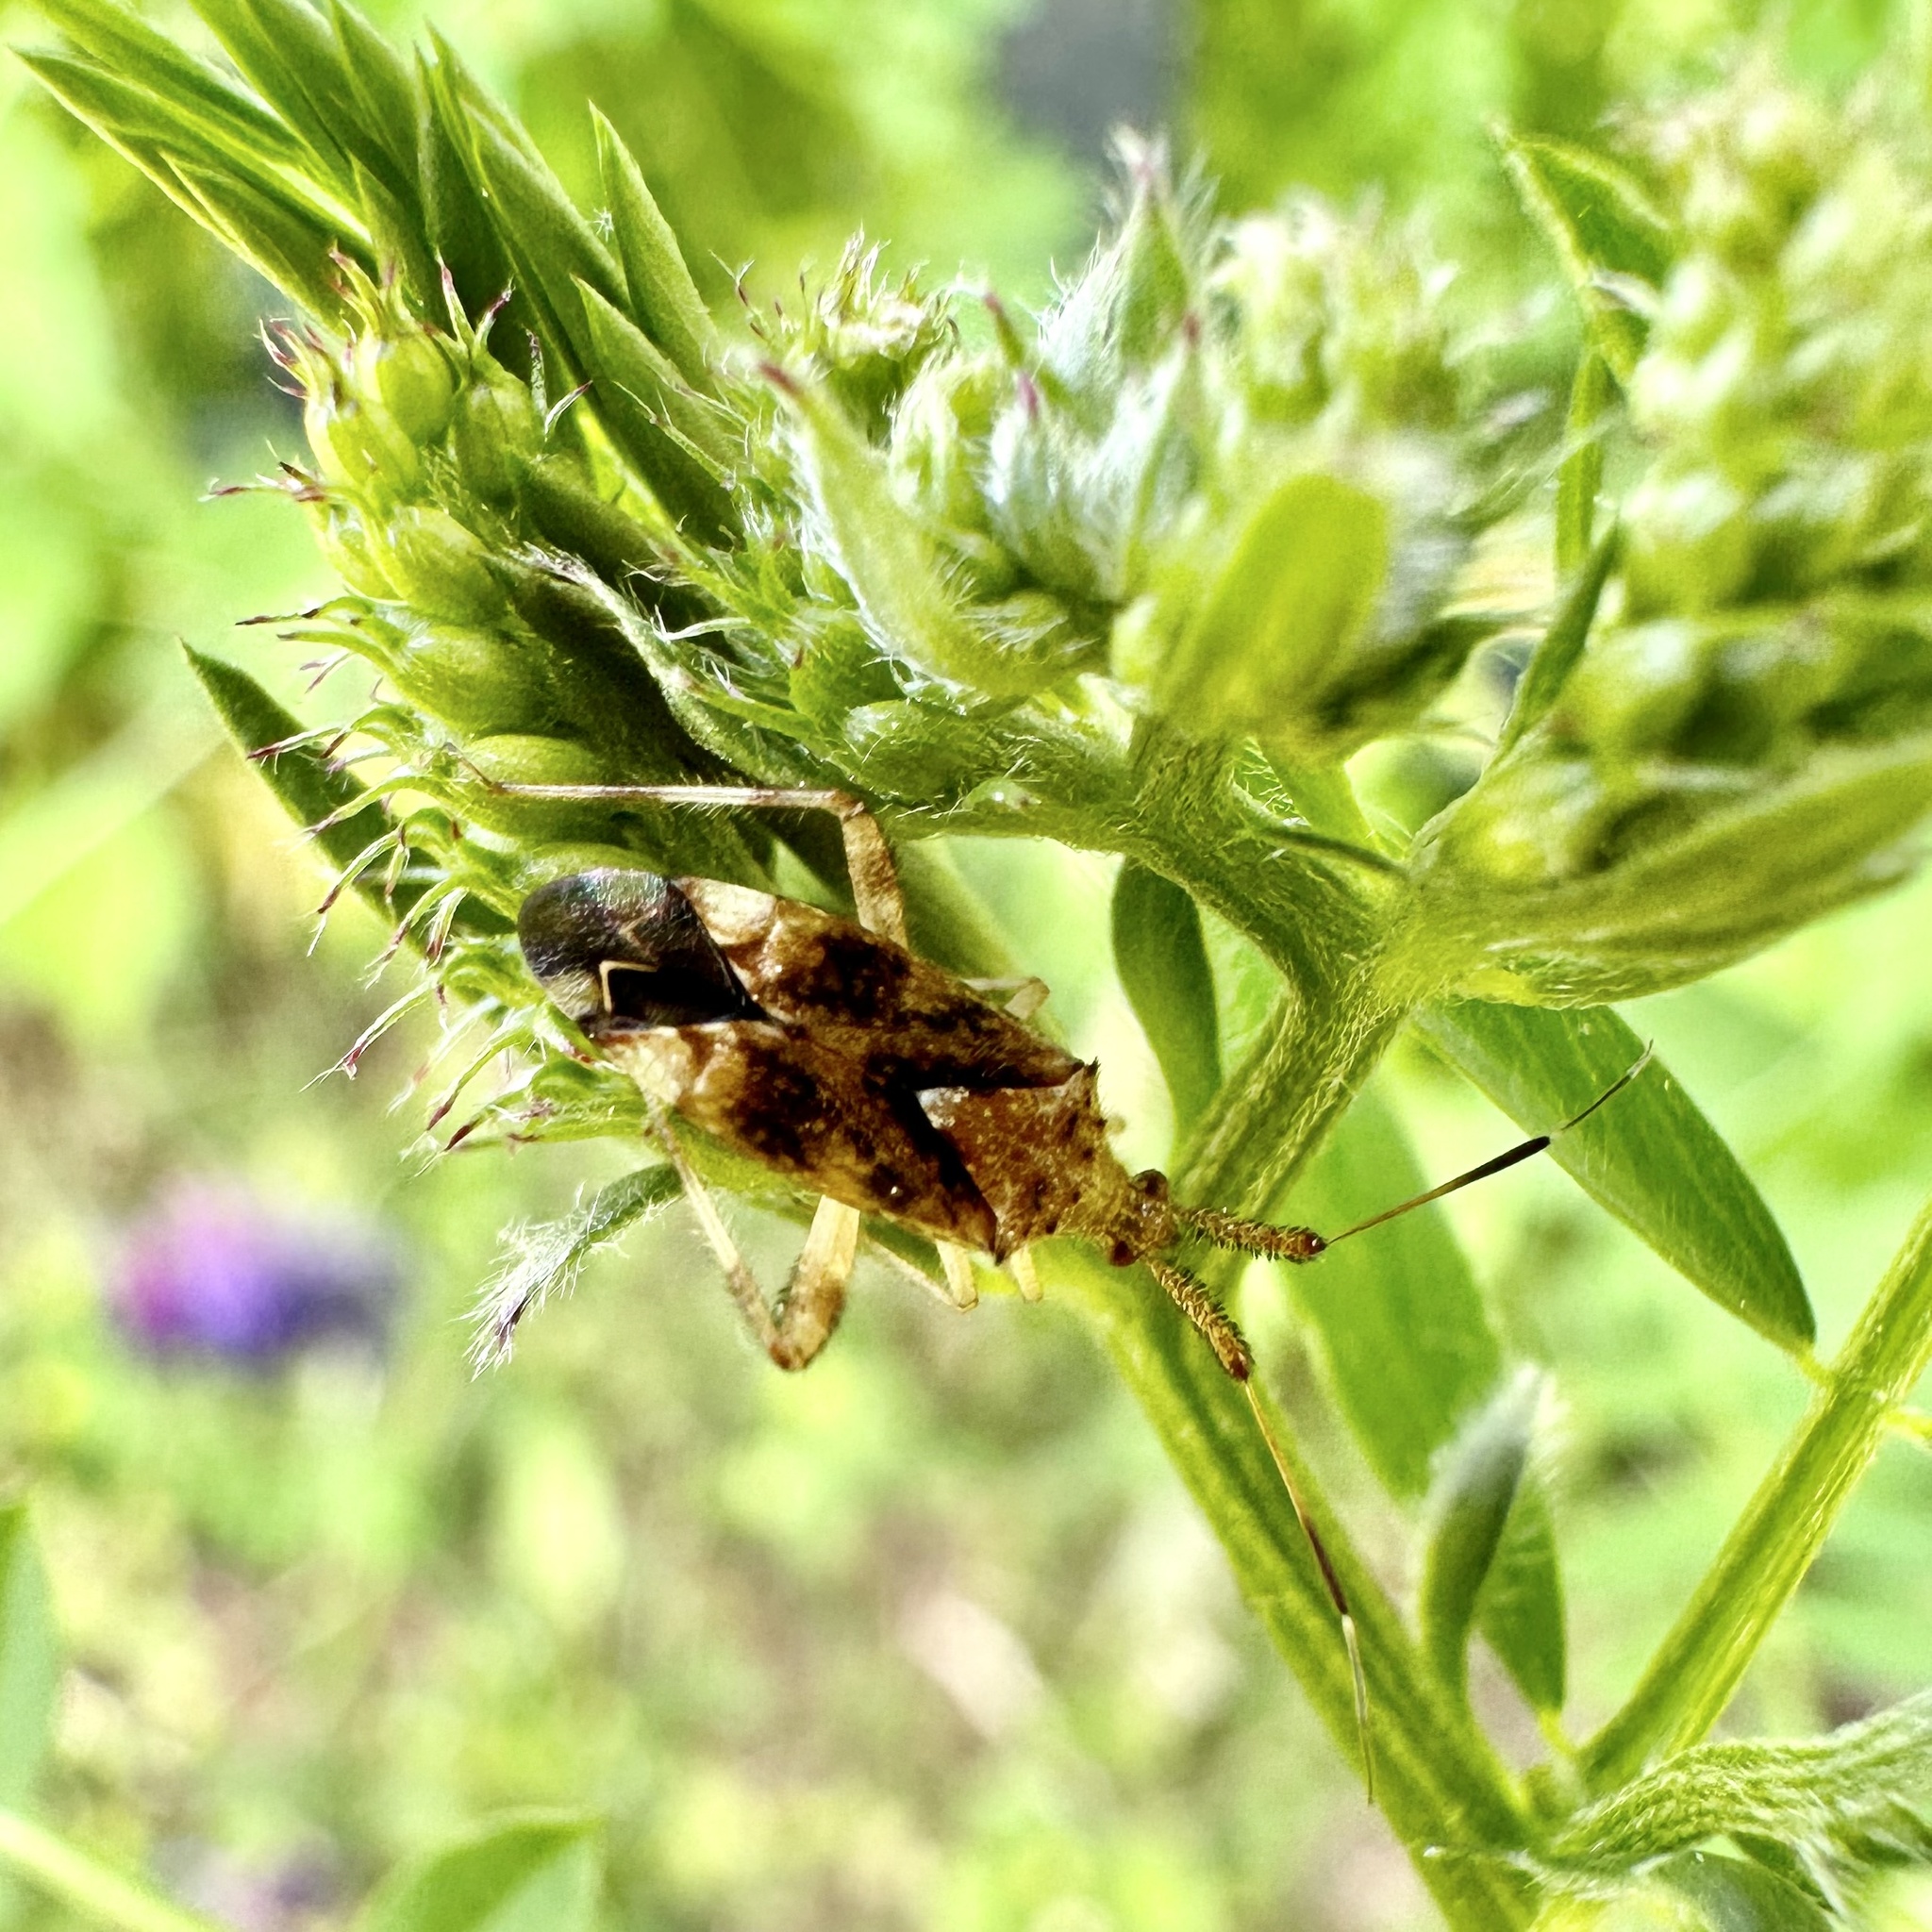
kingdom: Animalia
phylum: Arthropoda
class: Insecta
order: Hemiptera
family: Miridae
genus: Neurocolpus
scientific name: Neurocolpus nubilus
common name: Clouded plant bug
